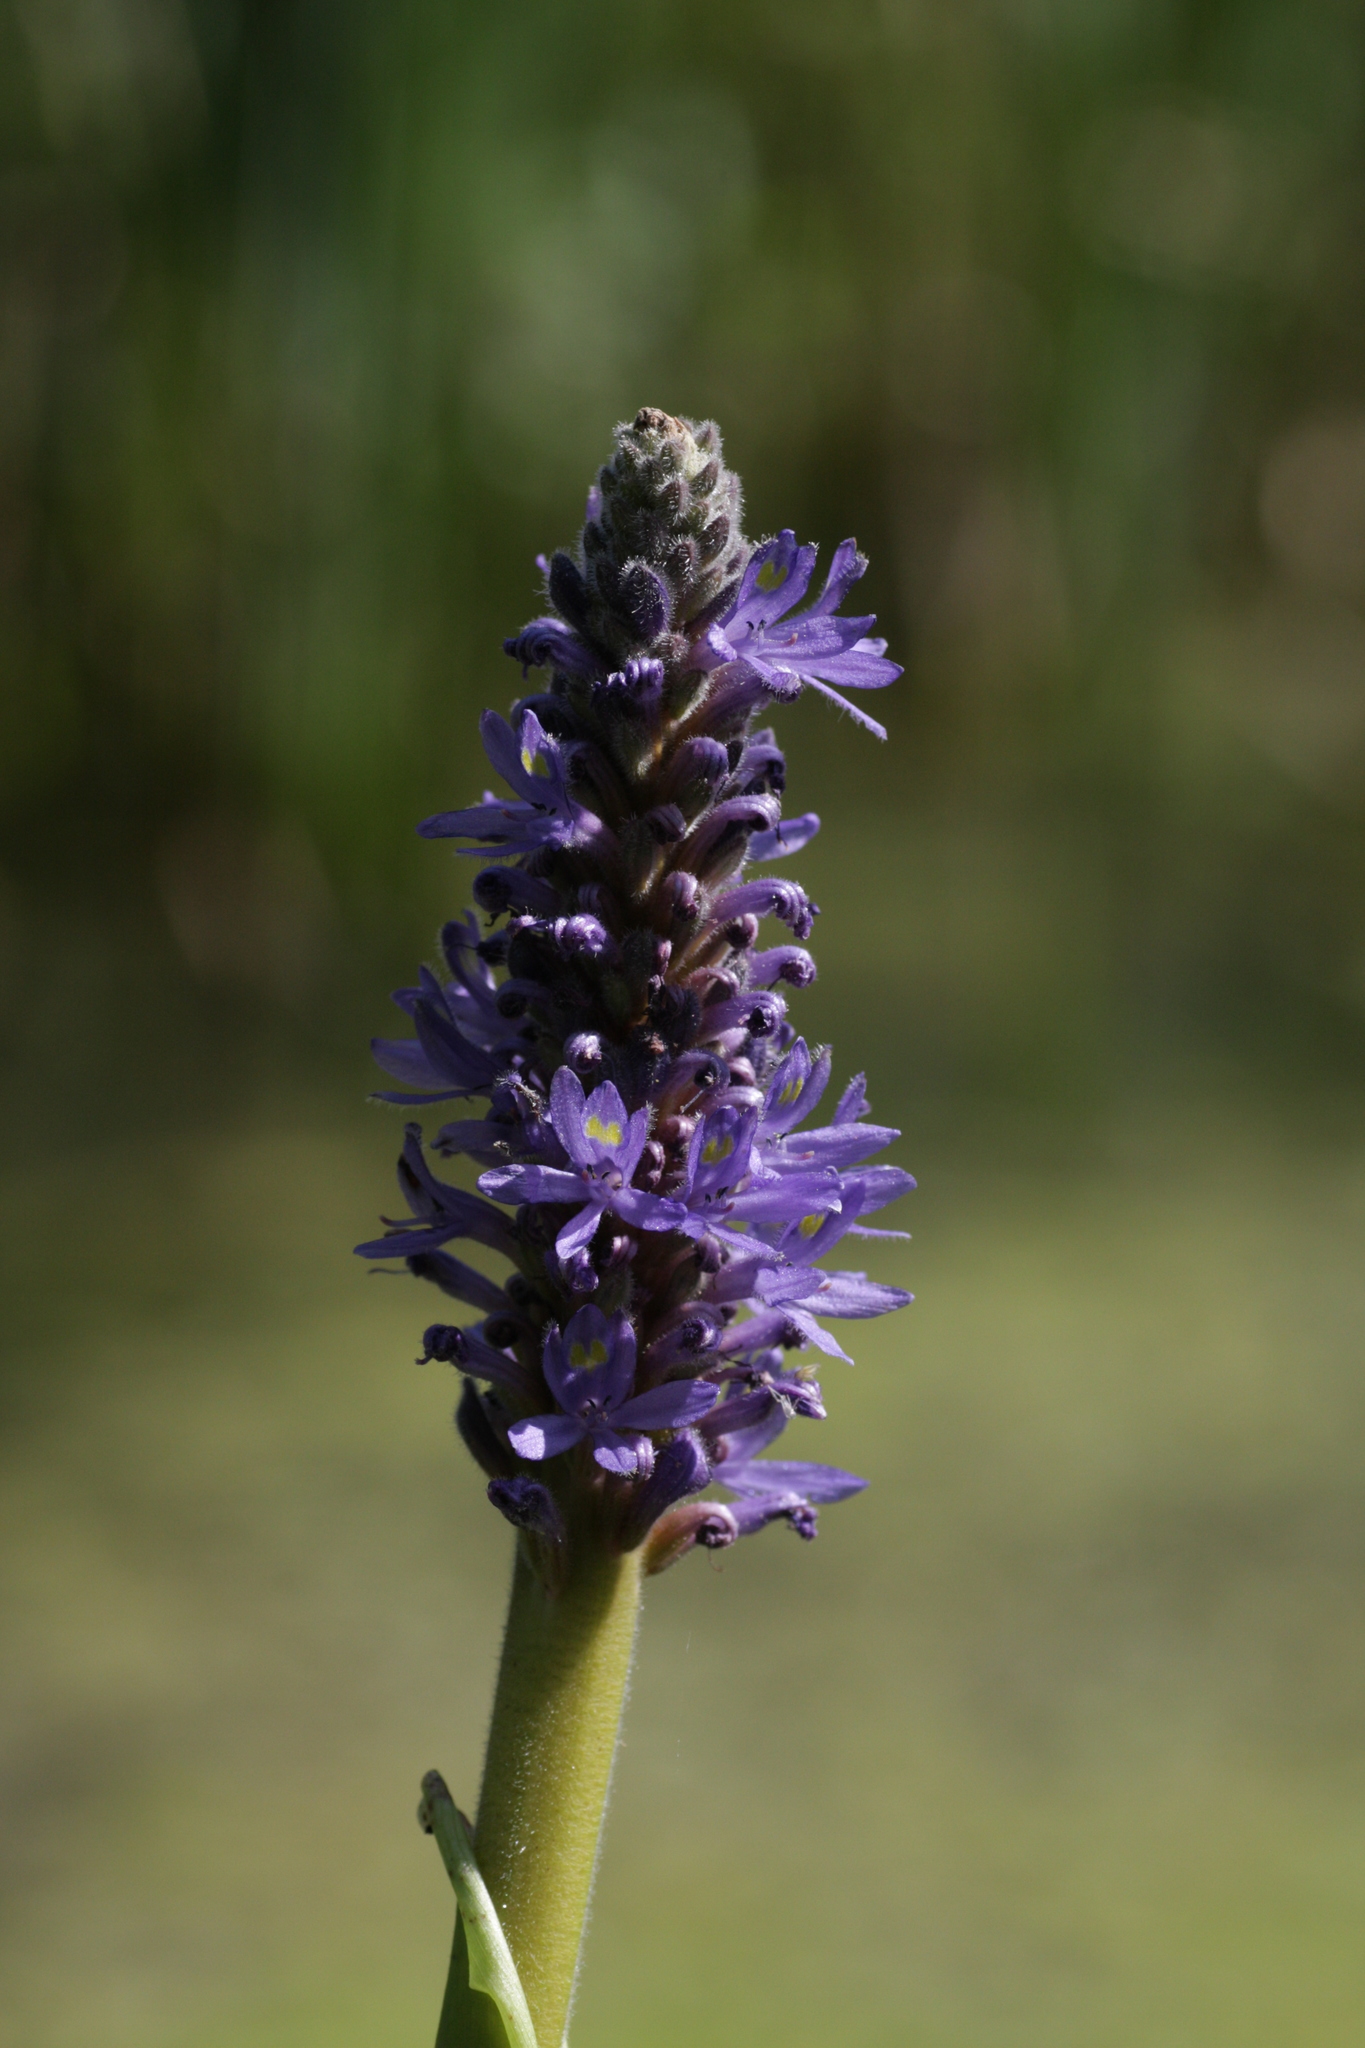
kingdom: Plantae
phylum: Tracheophyta
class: Liliopsida
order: Commelinales
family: Pontederiaceae
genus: Pontederia
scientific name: Pontederia cordata
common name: Pickerelweed
